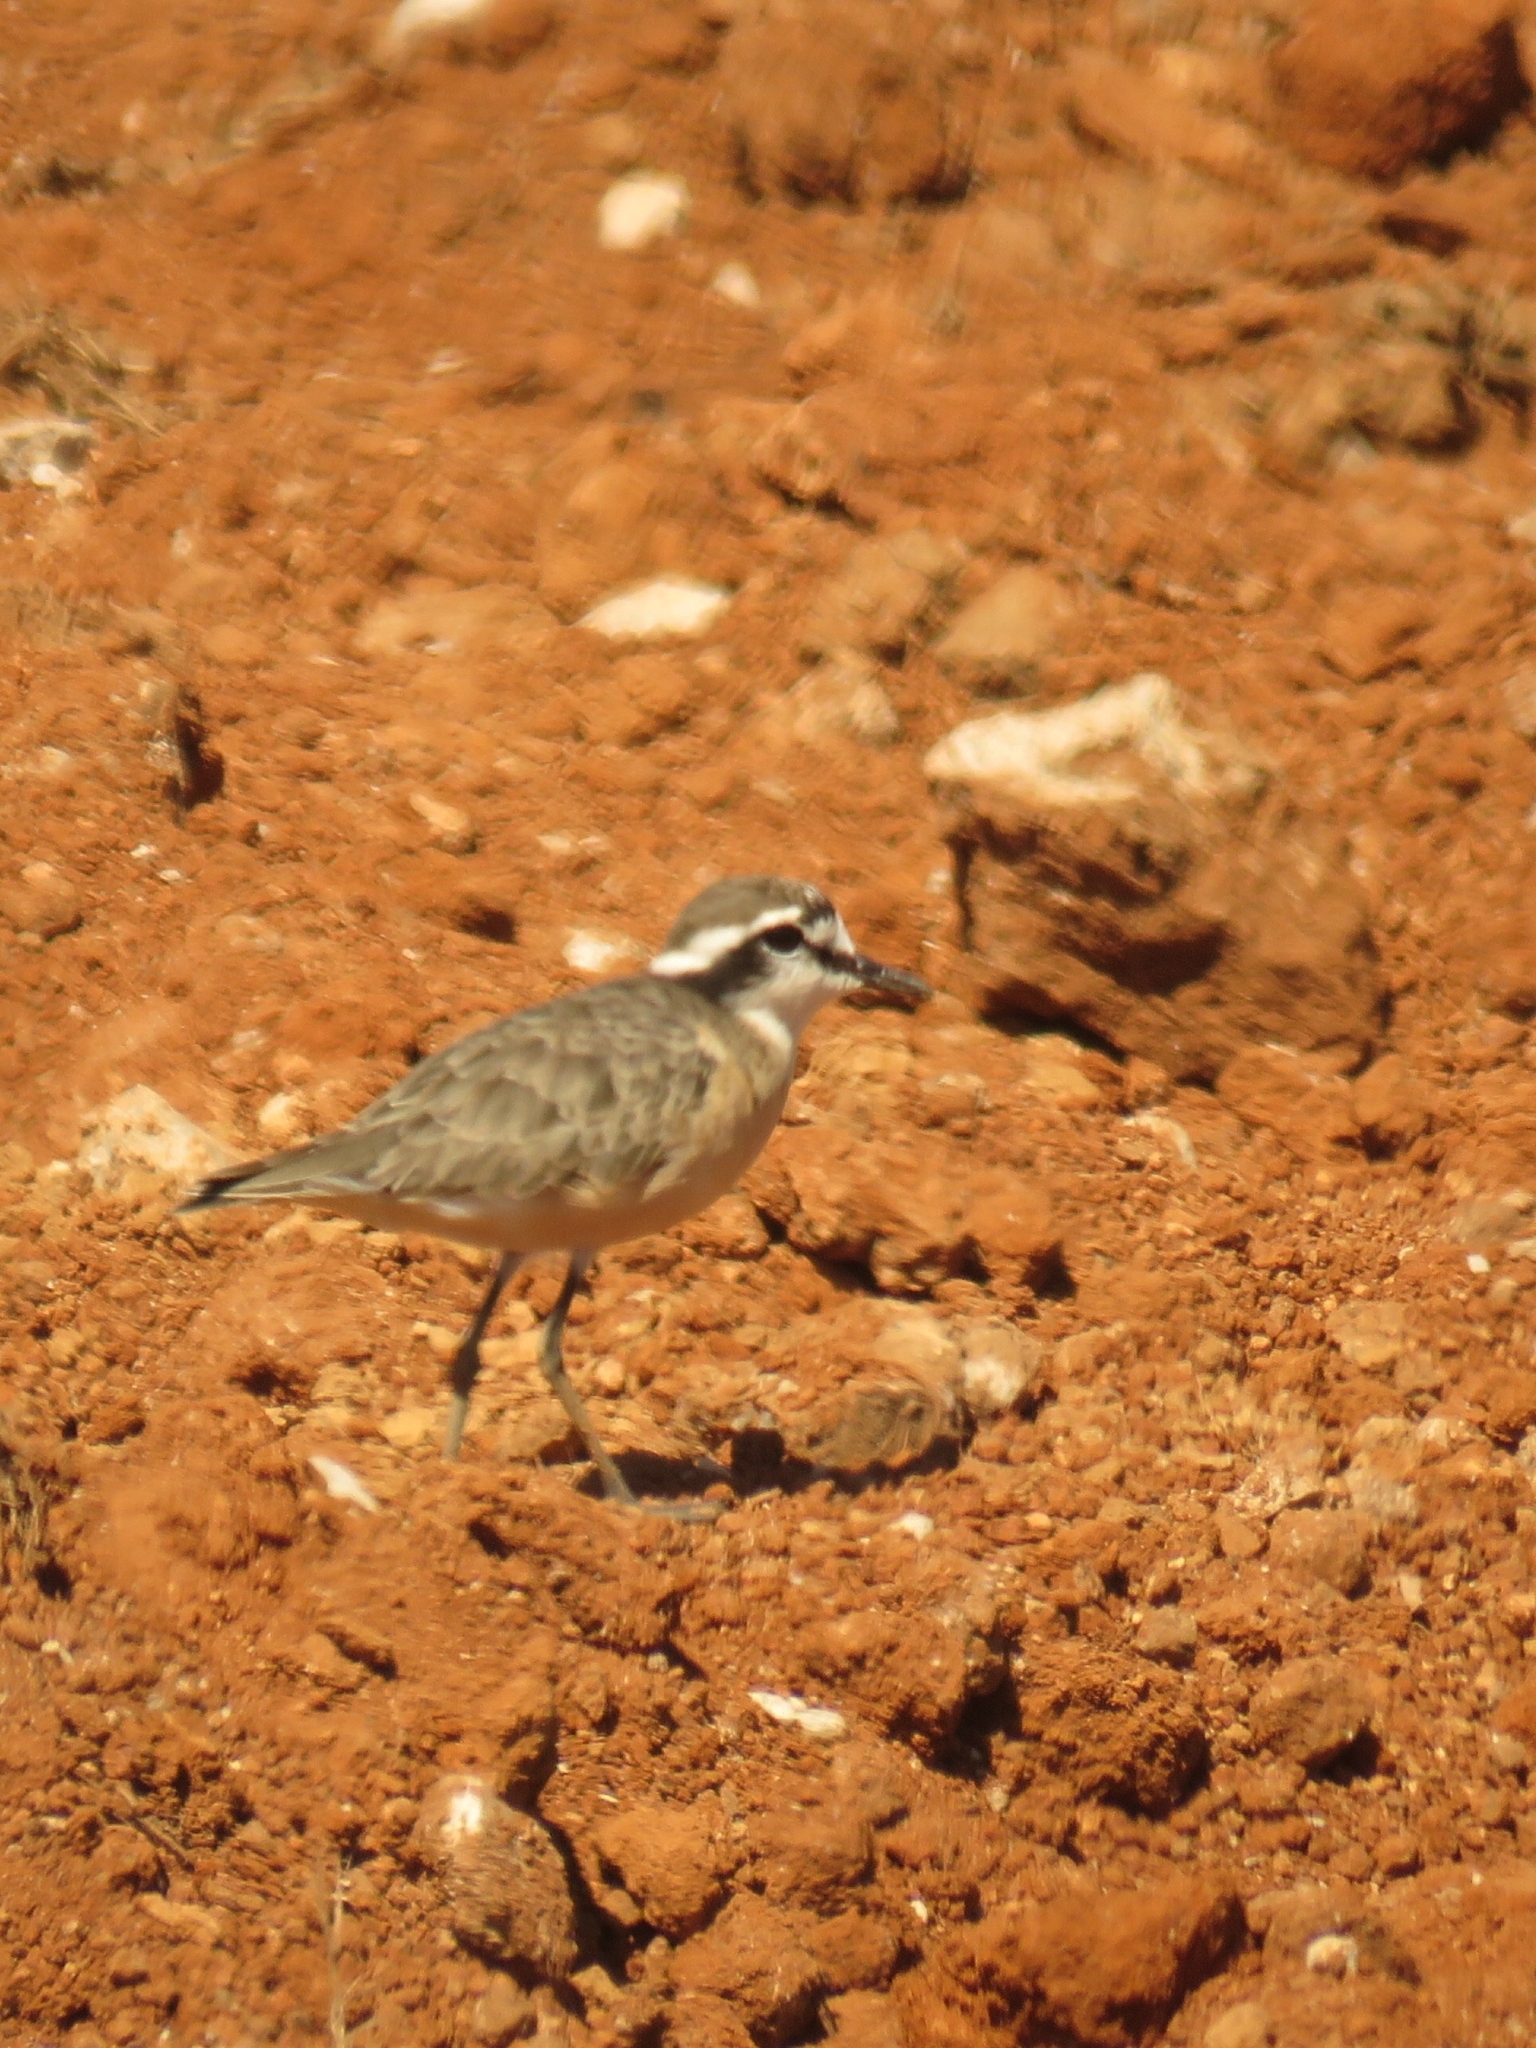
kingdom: Animalia
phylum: Chordata
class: Aves
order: Charadriiformes
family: Charadriidae
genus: Anarhynchus
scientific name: Anarhynchus
